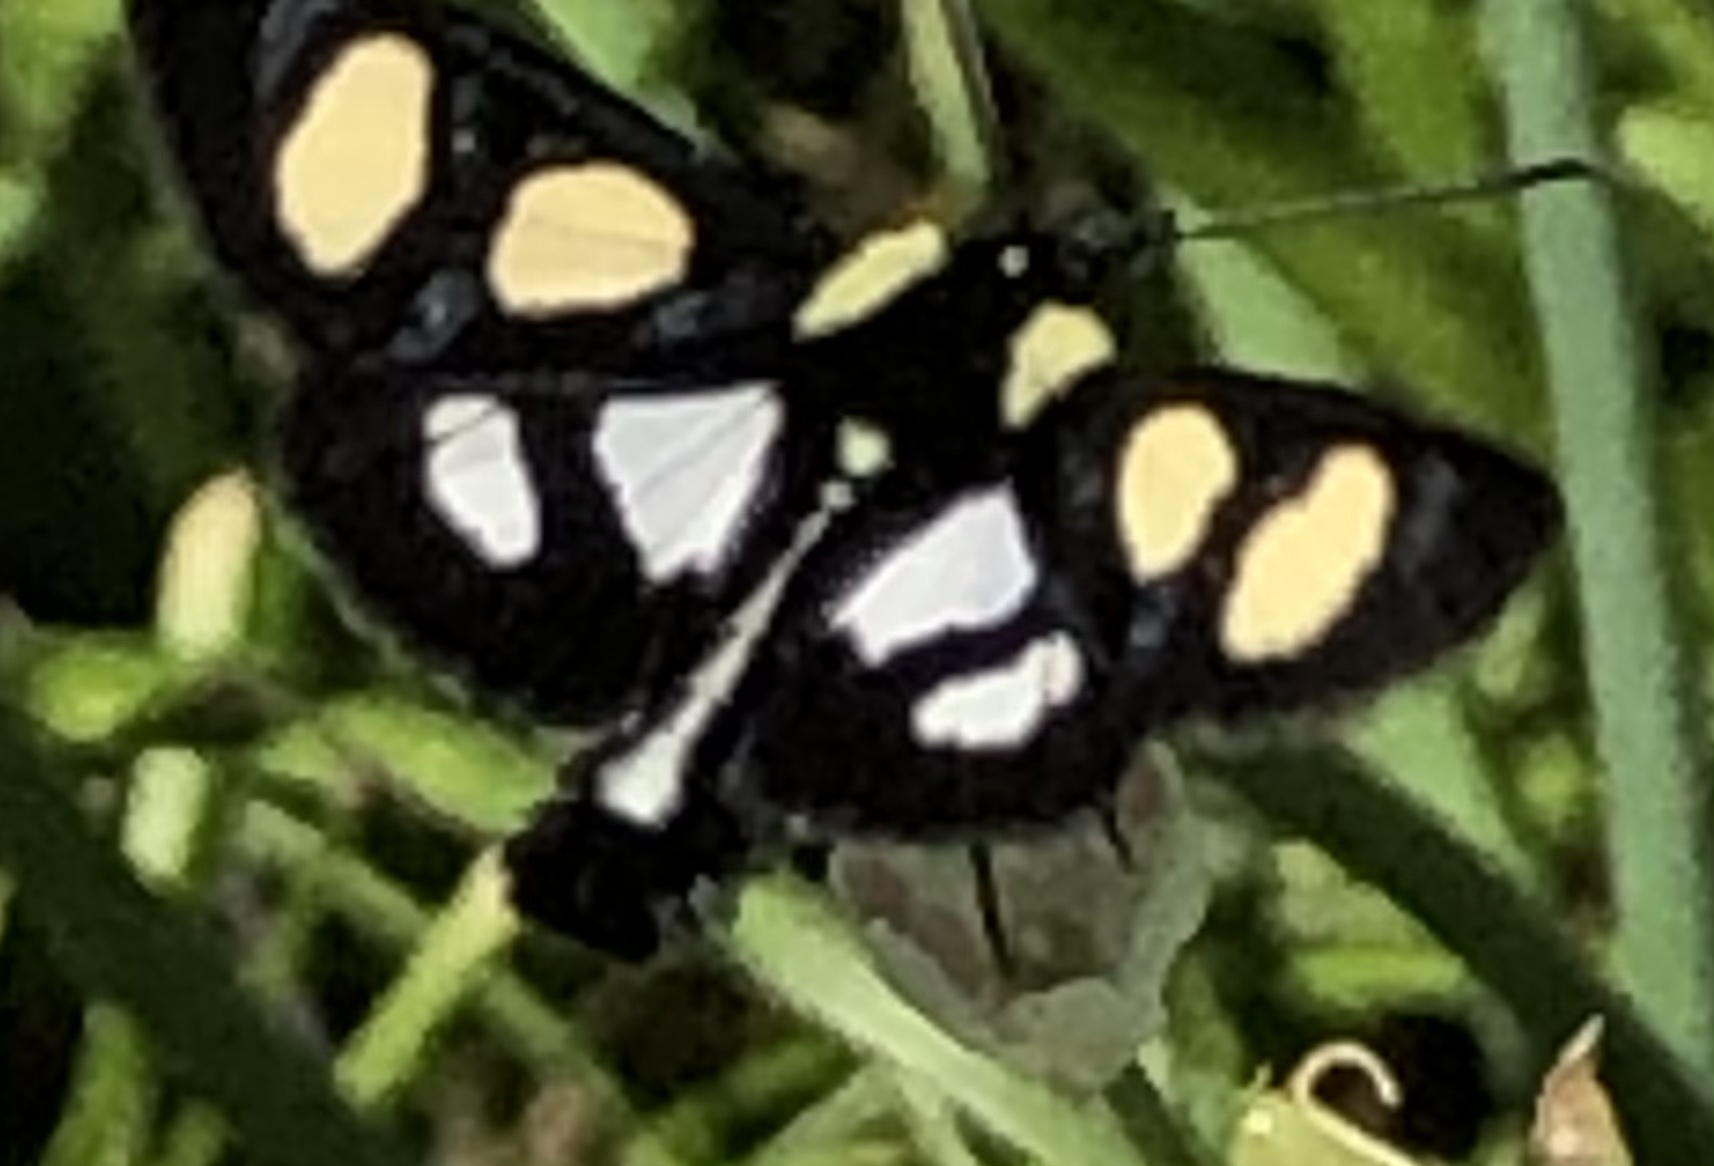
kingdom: Animalia
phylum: Arthropoda
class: Insecta
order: Lepidoptera
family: Noctuidae
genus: Alypia
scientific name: Alypia octomaculata
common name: Eight-spotted forester
